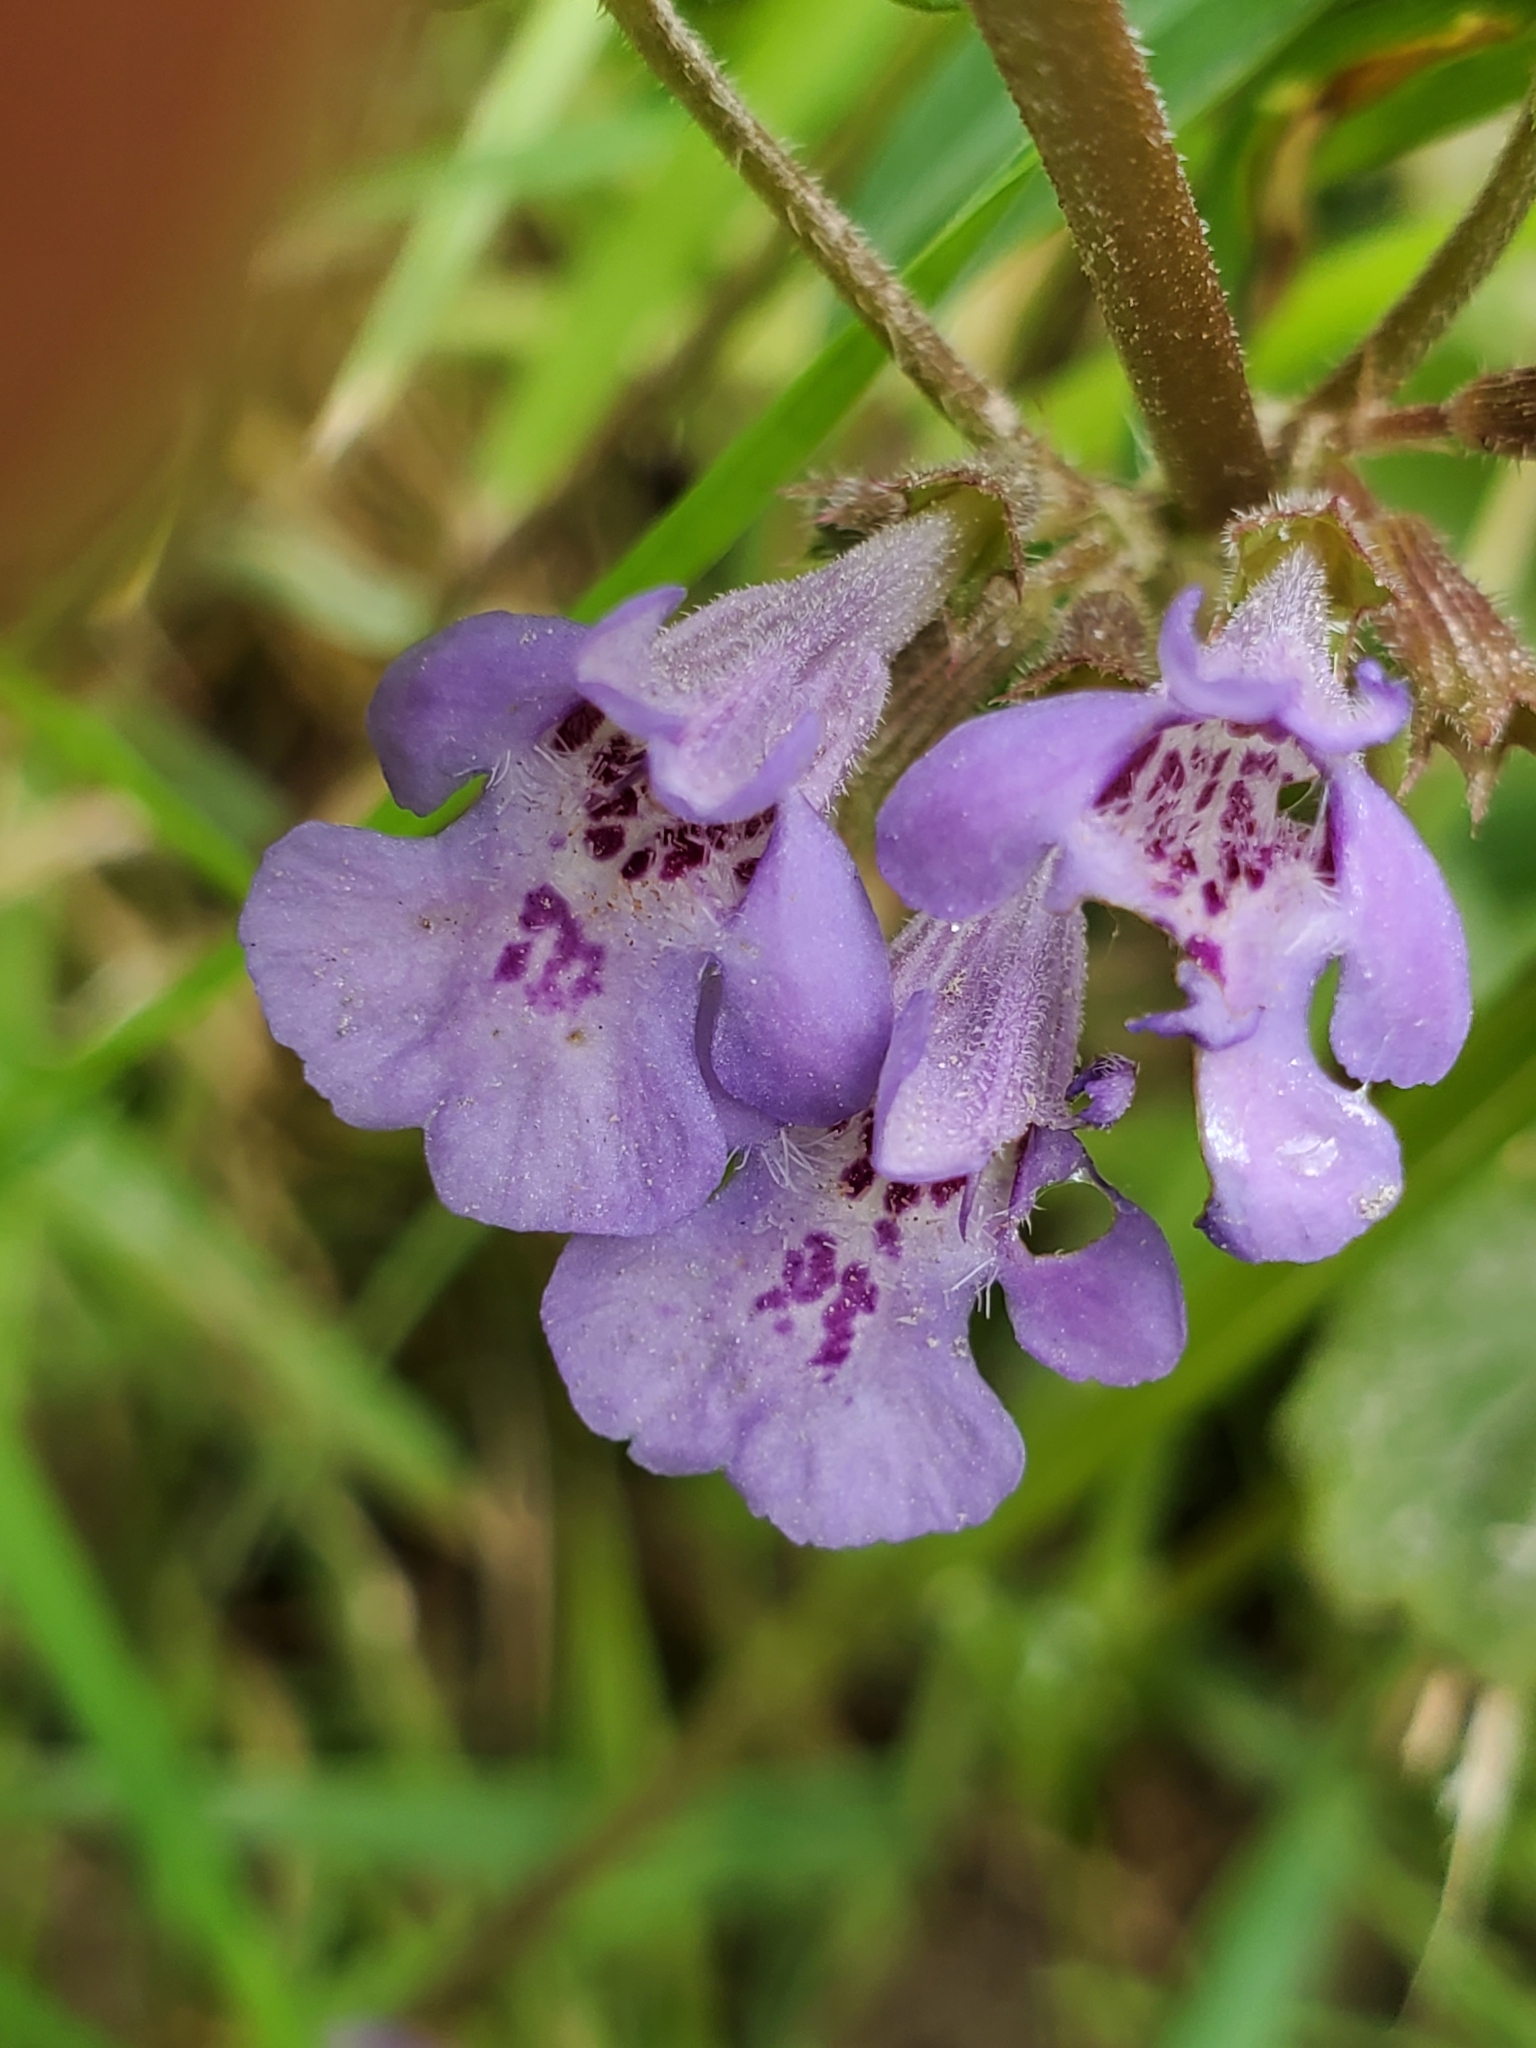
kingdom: Plantae
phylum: Tracheophyta
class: Magnoliopsida
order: Lamiales
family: Lamiaceae
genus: Glechoma
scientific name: Glechoma hederacea
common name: Ground ivy
